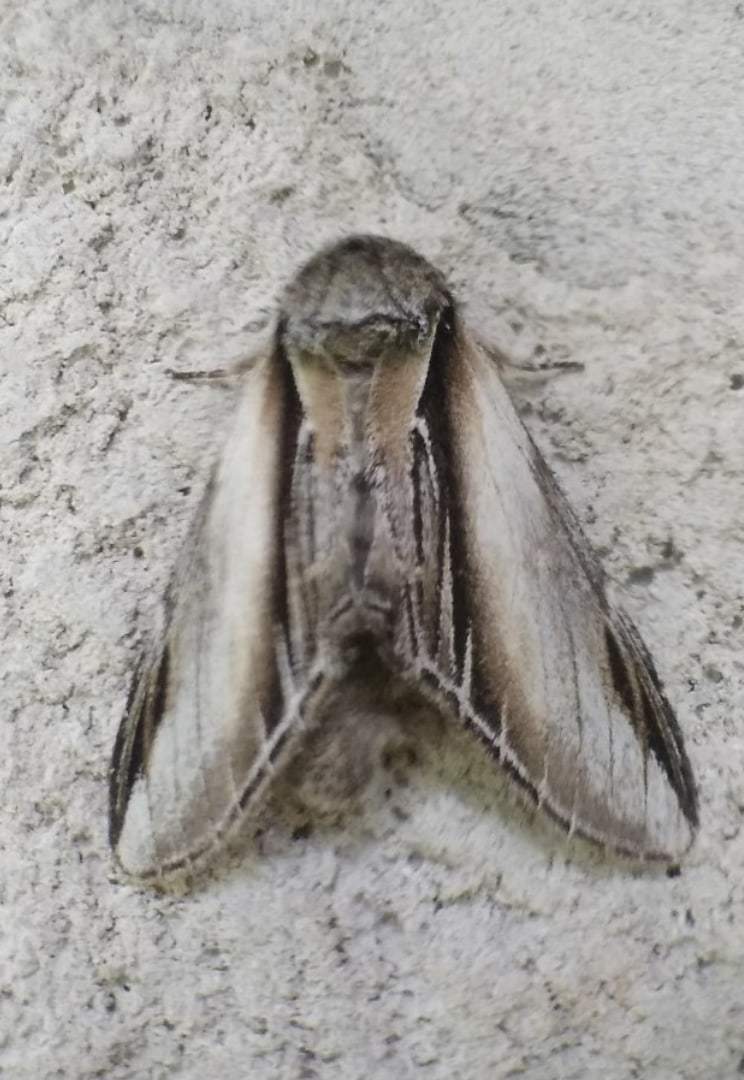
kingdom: Animalia
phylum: Arthropoda
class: Insecta
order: Lepidoptera
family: Notodontidae
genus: Pheosia
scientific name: Pheosia tremula
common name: Swallow prominent
